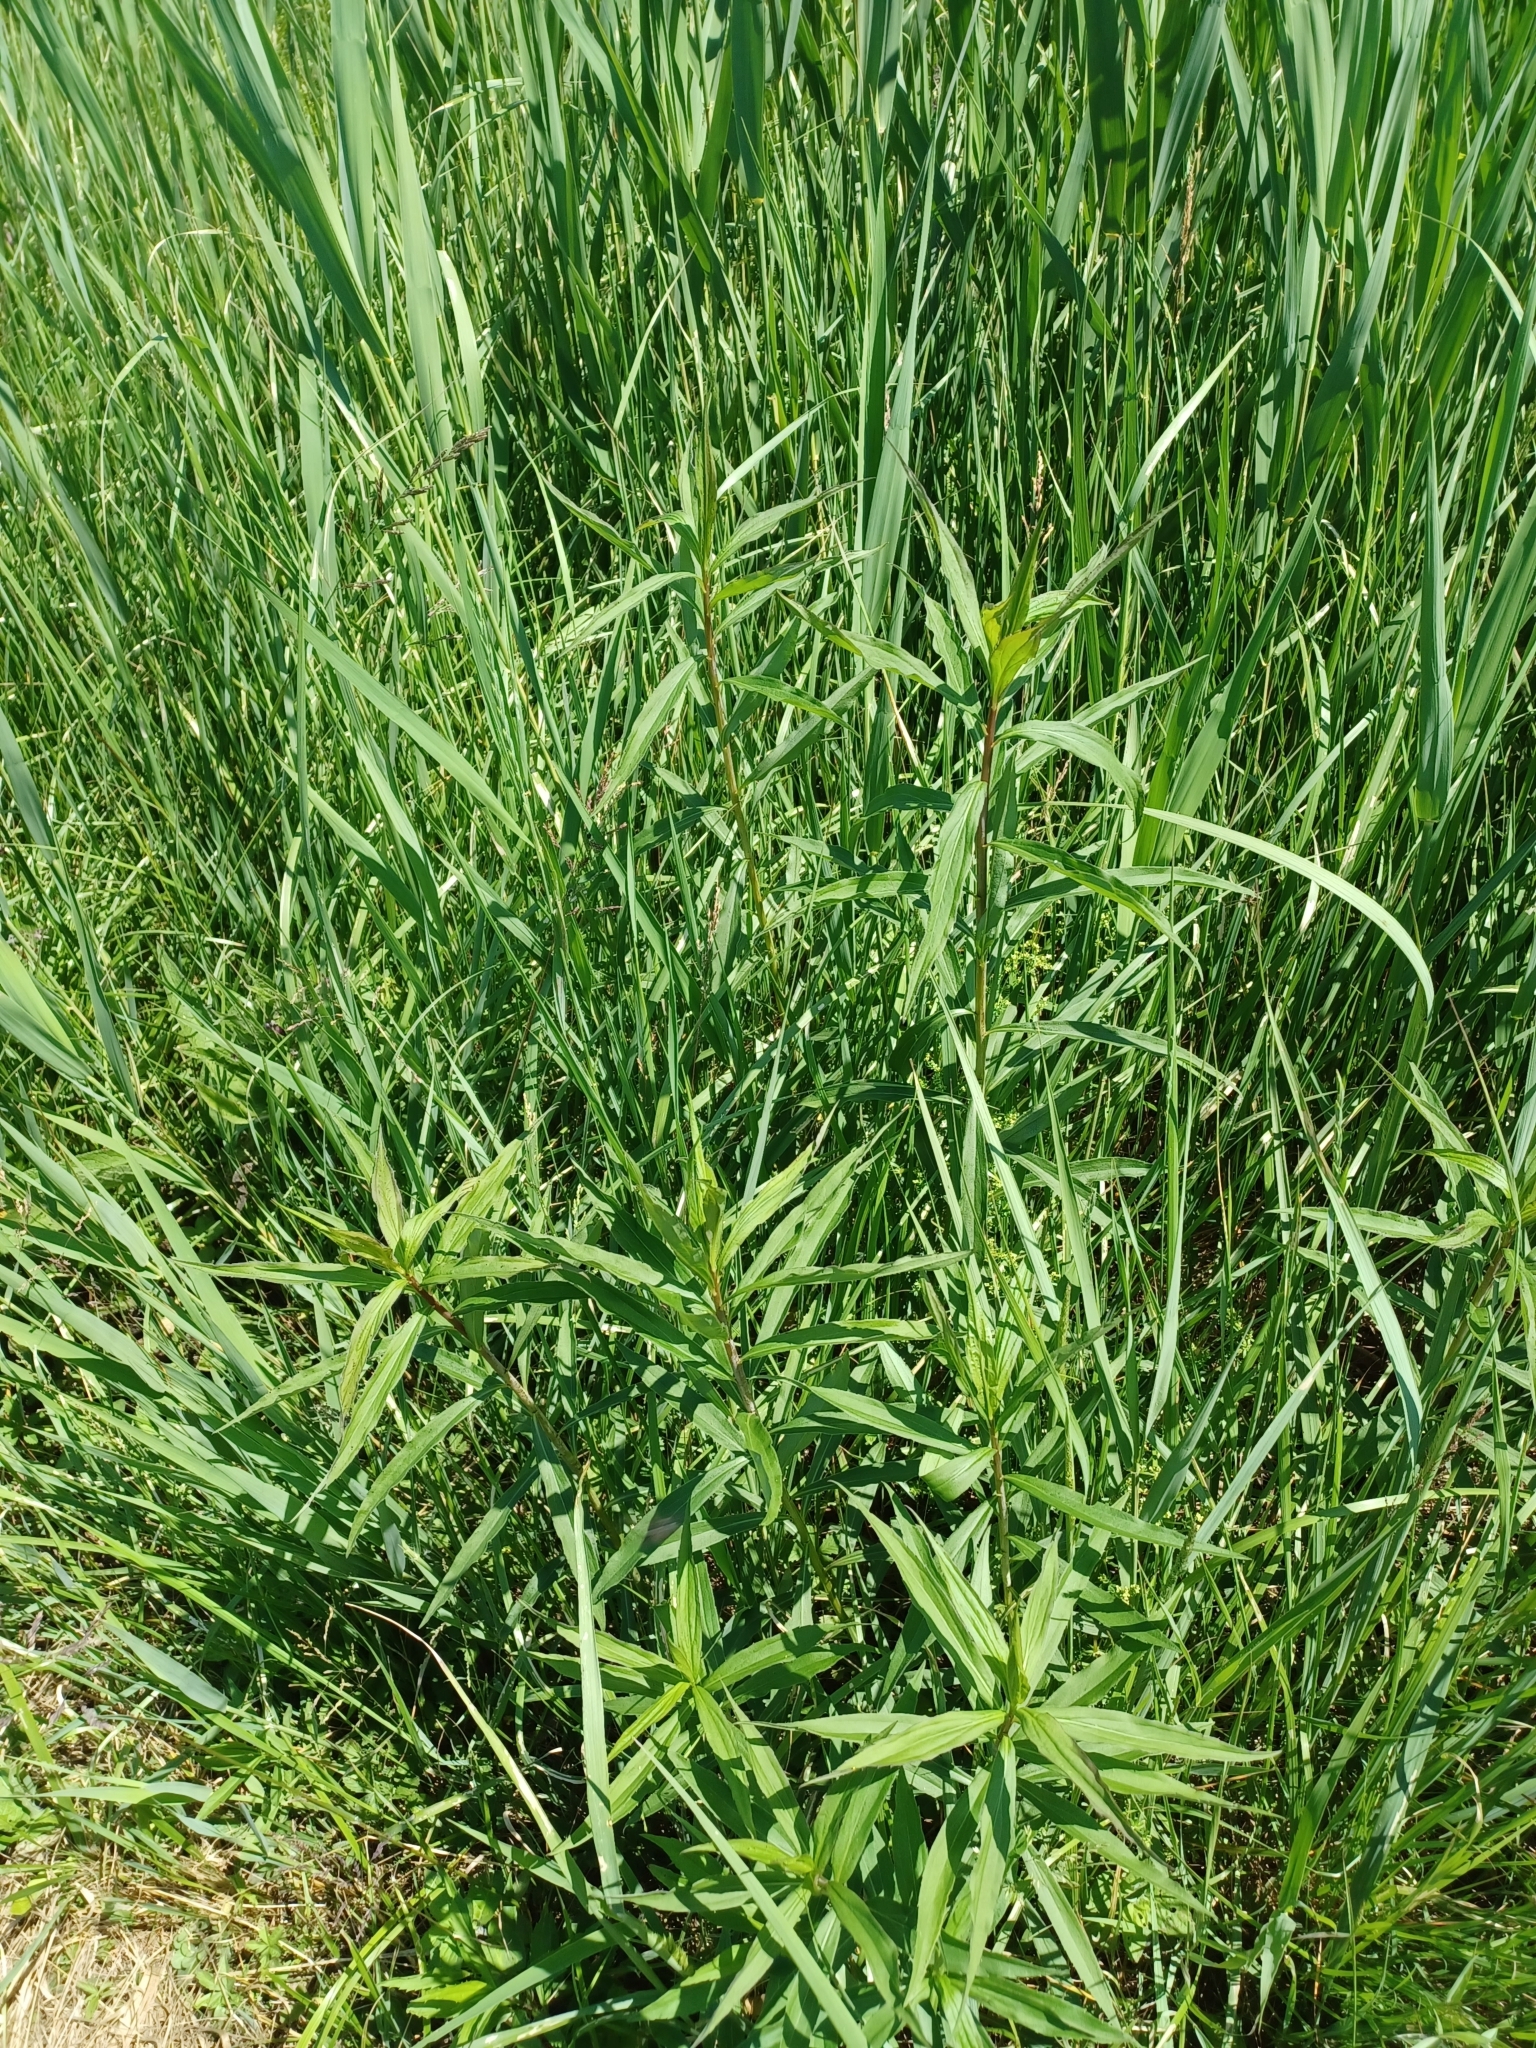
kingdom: Plantae
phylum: Tracheophyta
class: Magnoliopsida
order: Asterales
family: Asteraceae
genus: Solidago
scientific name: Solidago gigantea
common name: Giant goldenrod
